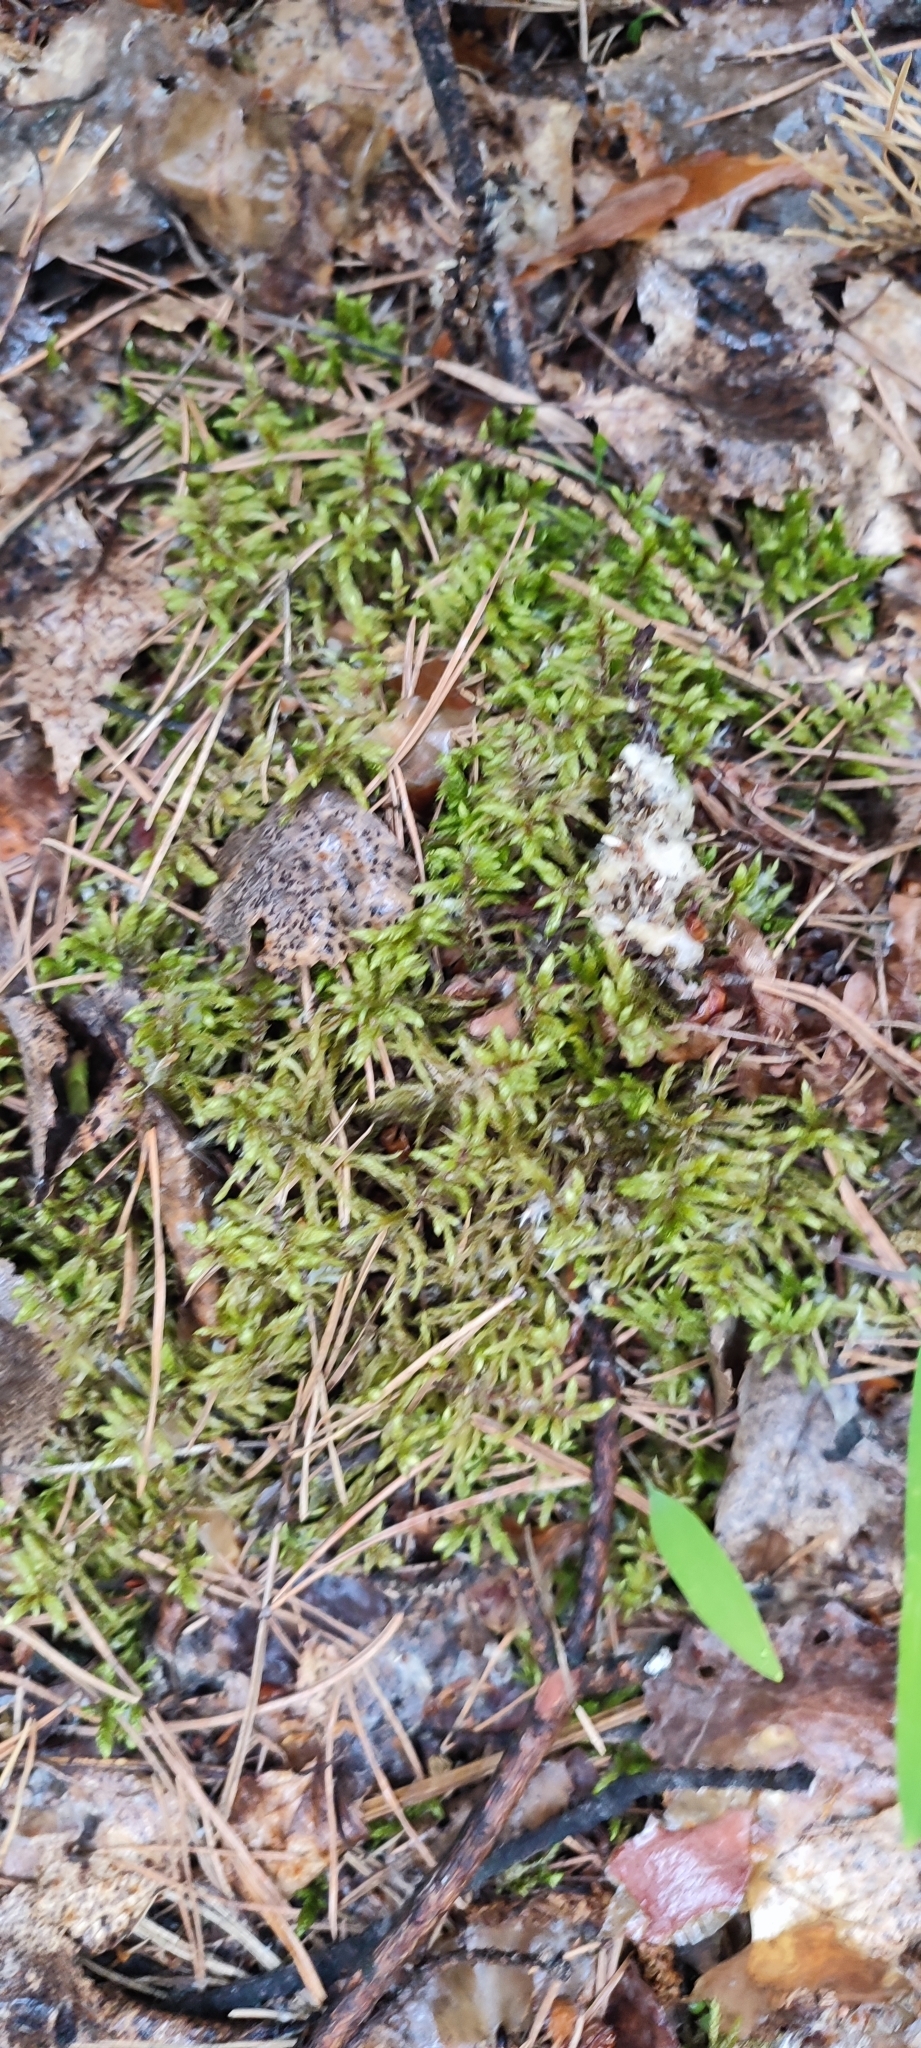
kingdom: Plantae
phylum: Bryophyta
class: Bryopsida
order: Hypnales
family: Hylocomiaceae
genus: Pleurozium
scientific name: Pleurozium schreberi
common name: Red-stemmed feather moss
